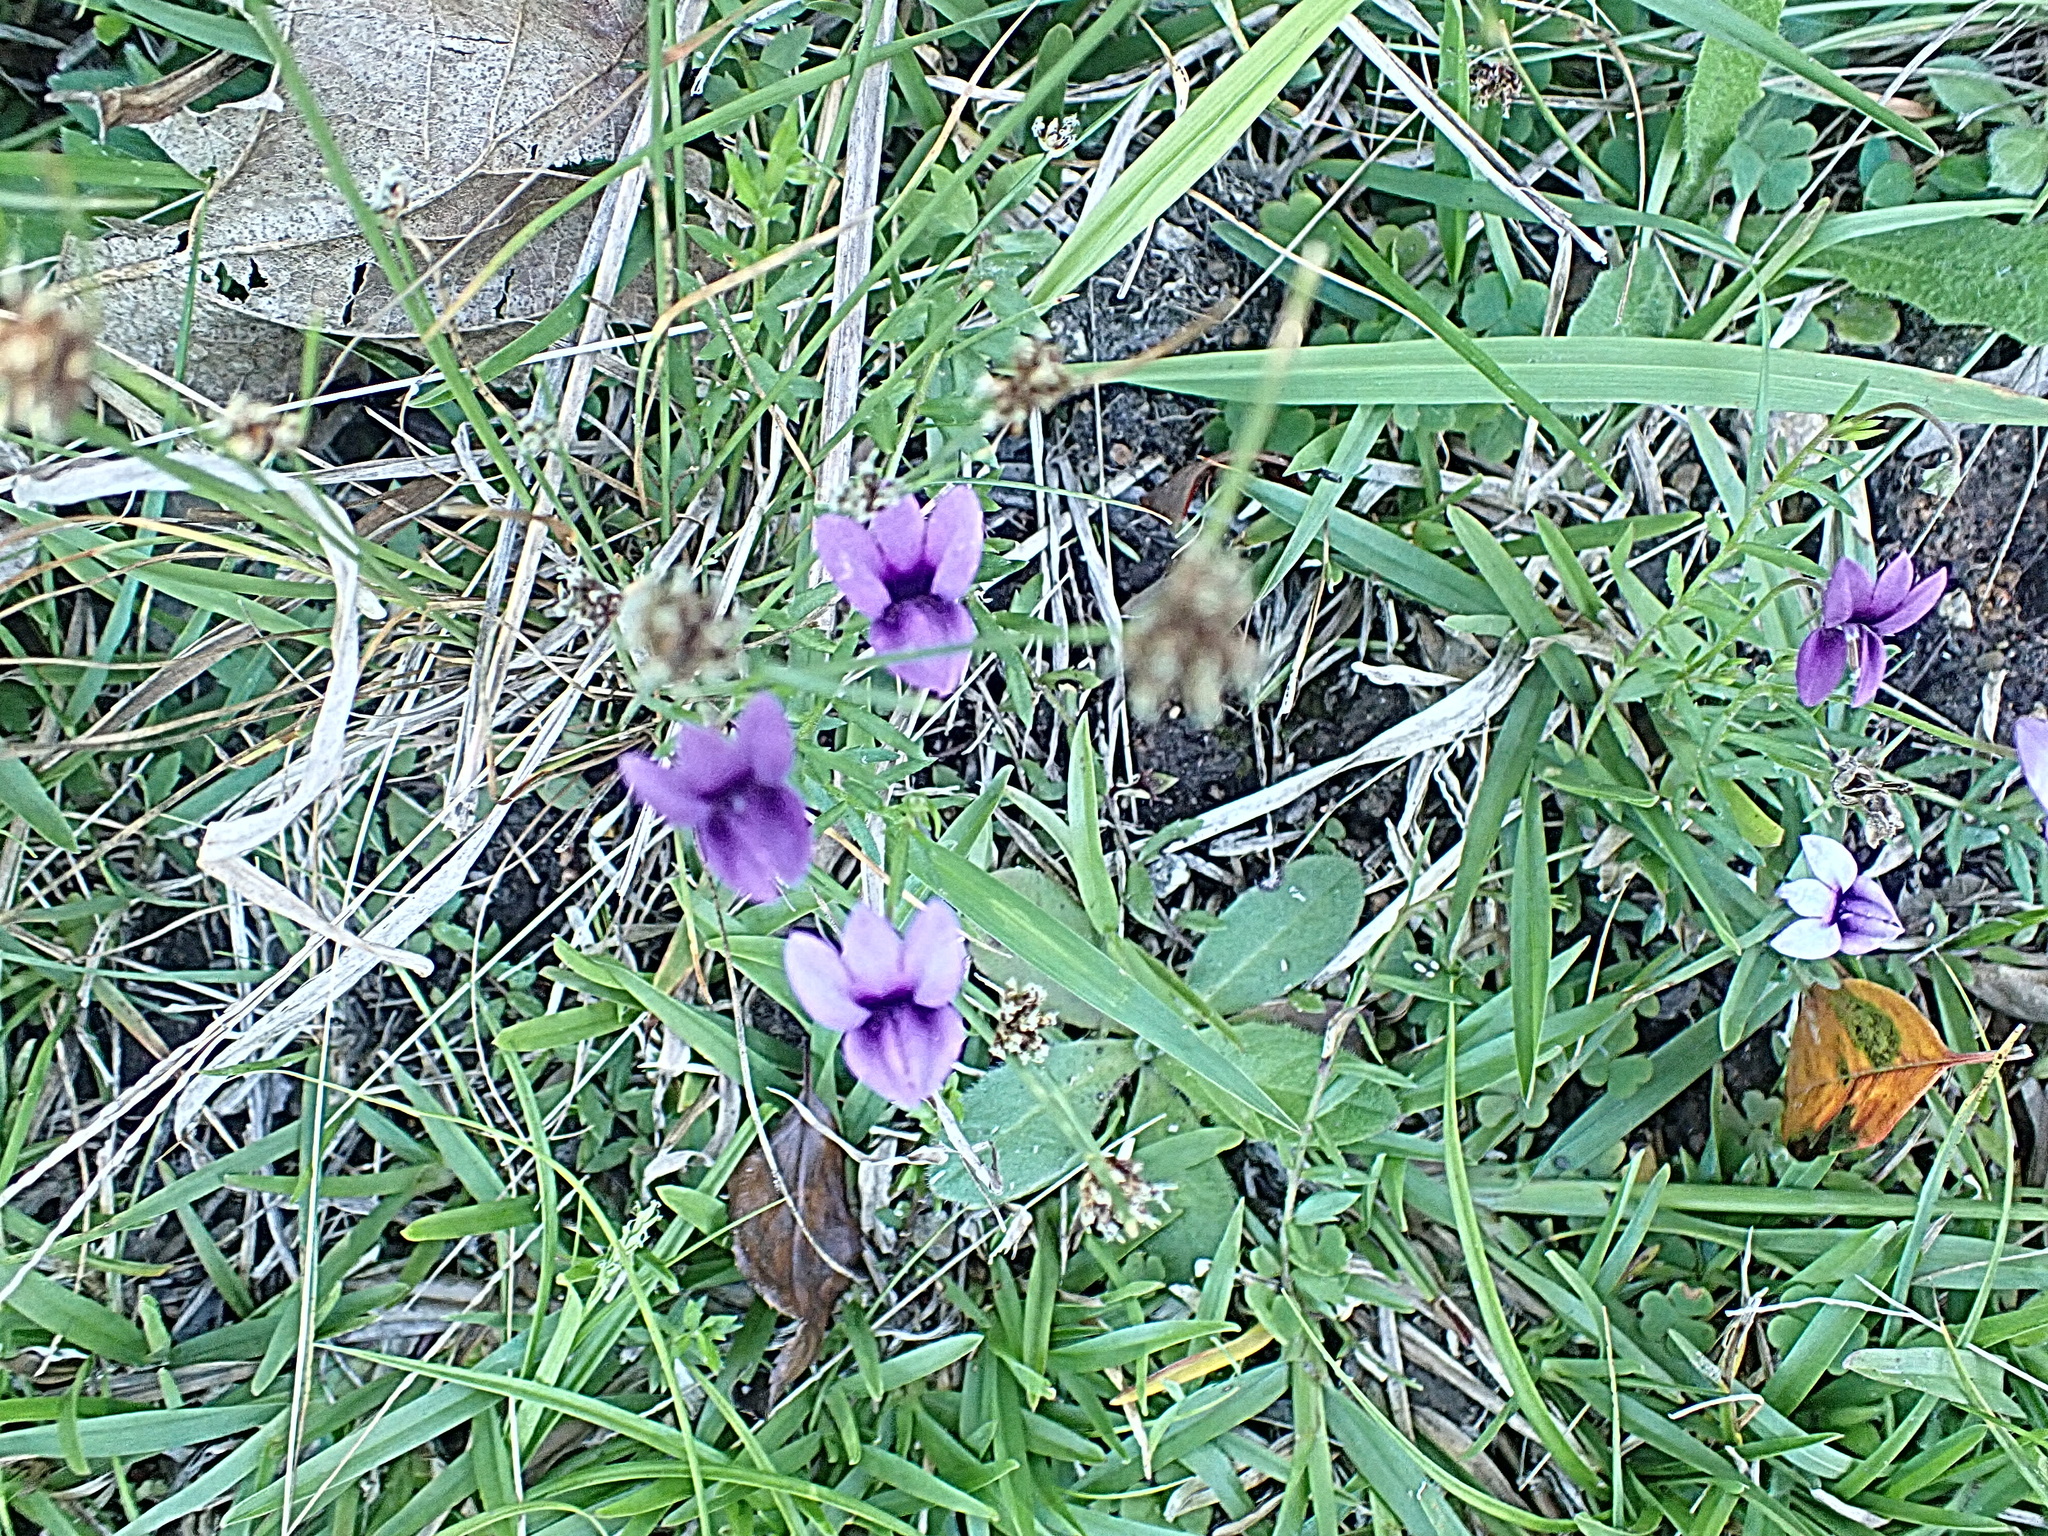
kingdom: Plantae
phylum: Tracheophyta
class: Magnoliopsida
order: Asterales
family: Campanulaceae
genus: Monopsis
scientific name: Monopsis unidentata
